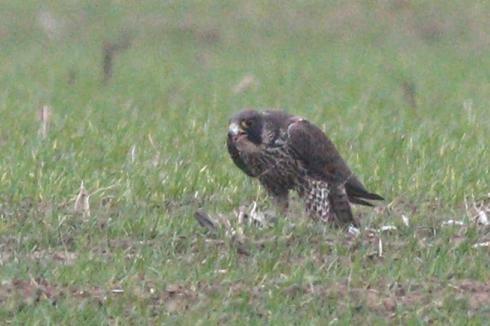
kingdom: Animalia
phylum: Chordata
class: Aves
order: Falconiformes
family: Falconidae
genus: Falco
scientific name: Falco peregrinus
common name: Peregrine falcon
